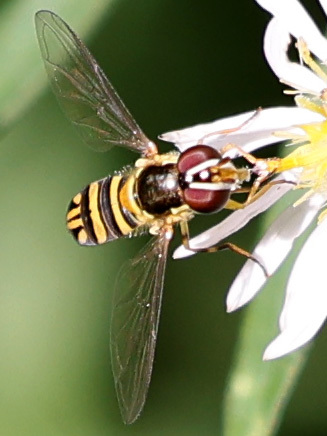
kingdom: Animalia
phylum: Arthropoda
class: Insecta
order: Diptera
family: Syrphidae
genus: Allograpta
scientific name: Allograpta obliqua
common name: Common oblique syrphid
